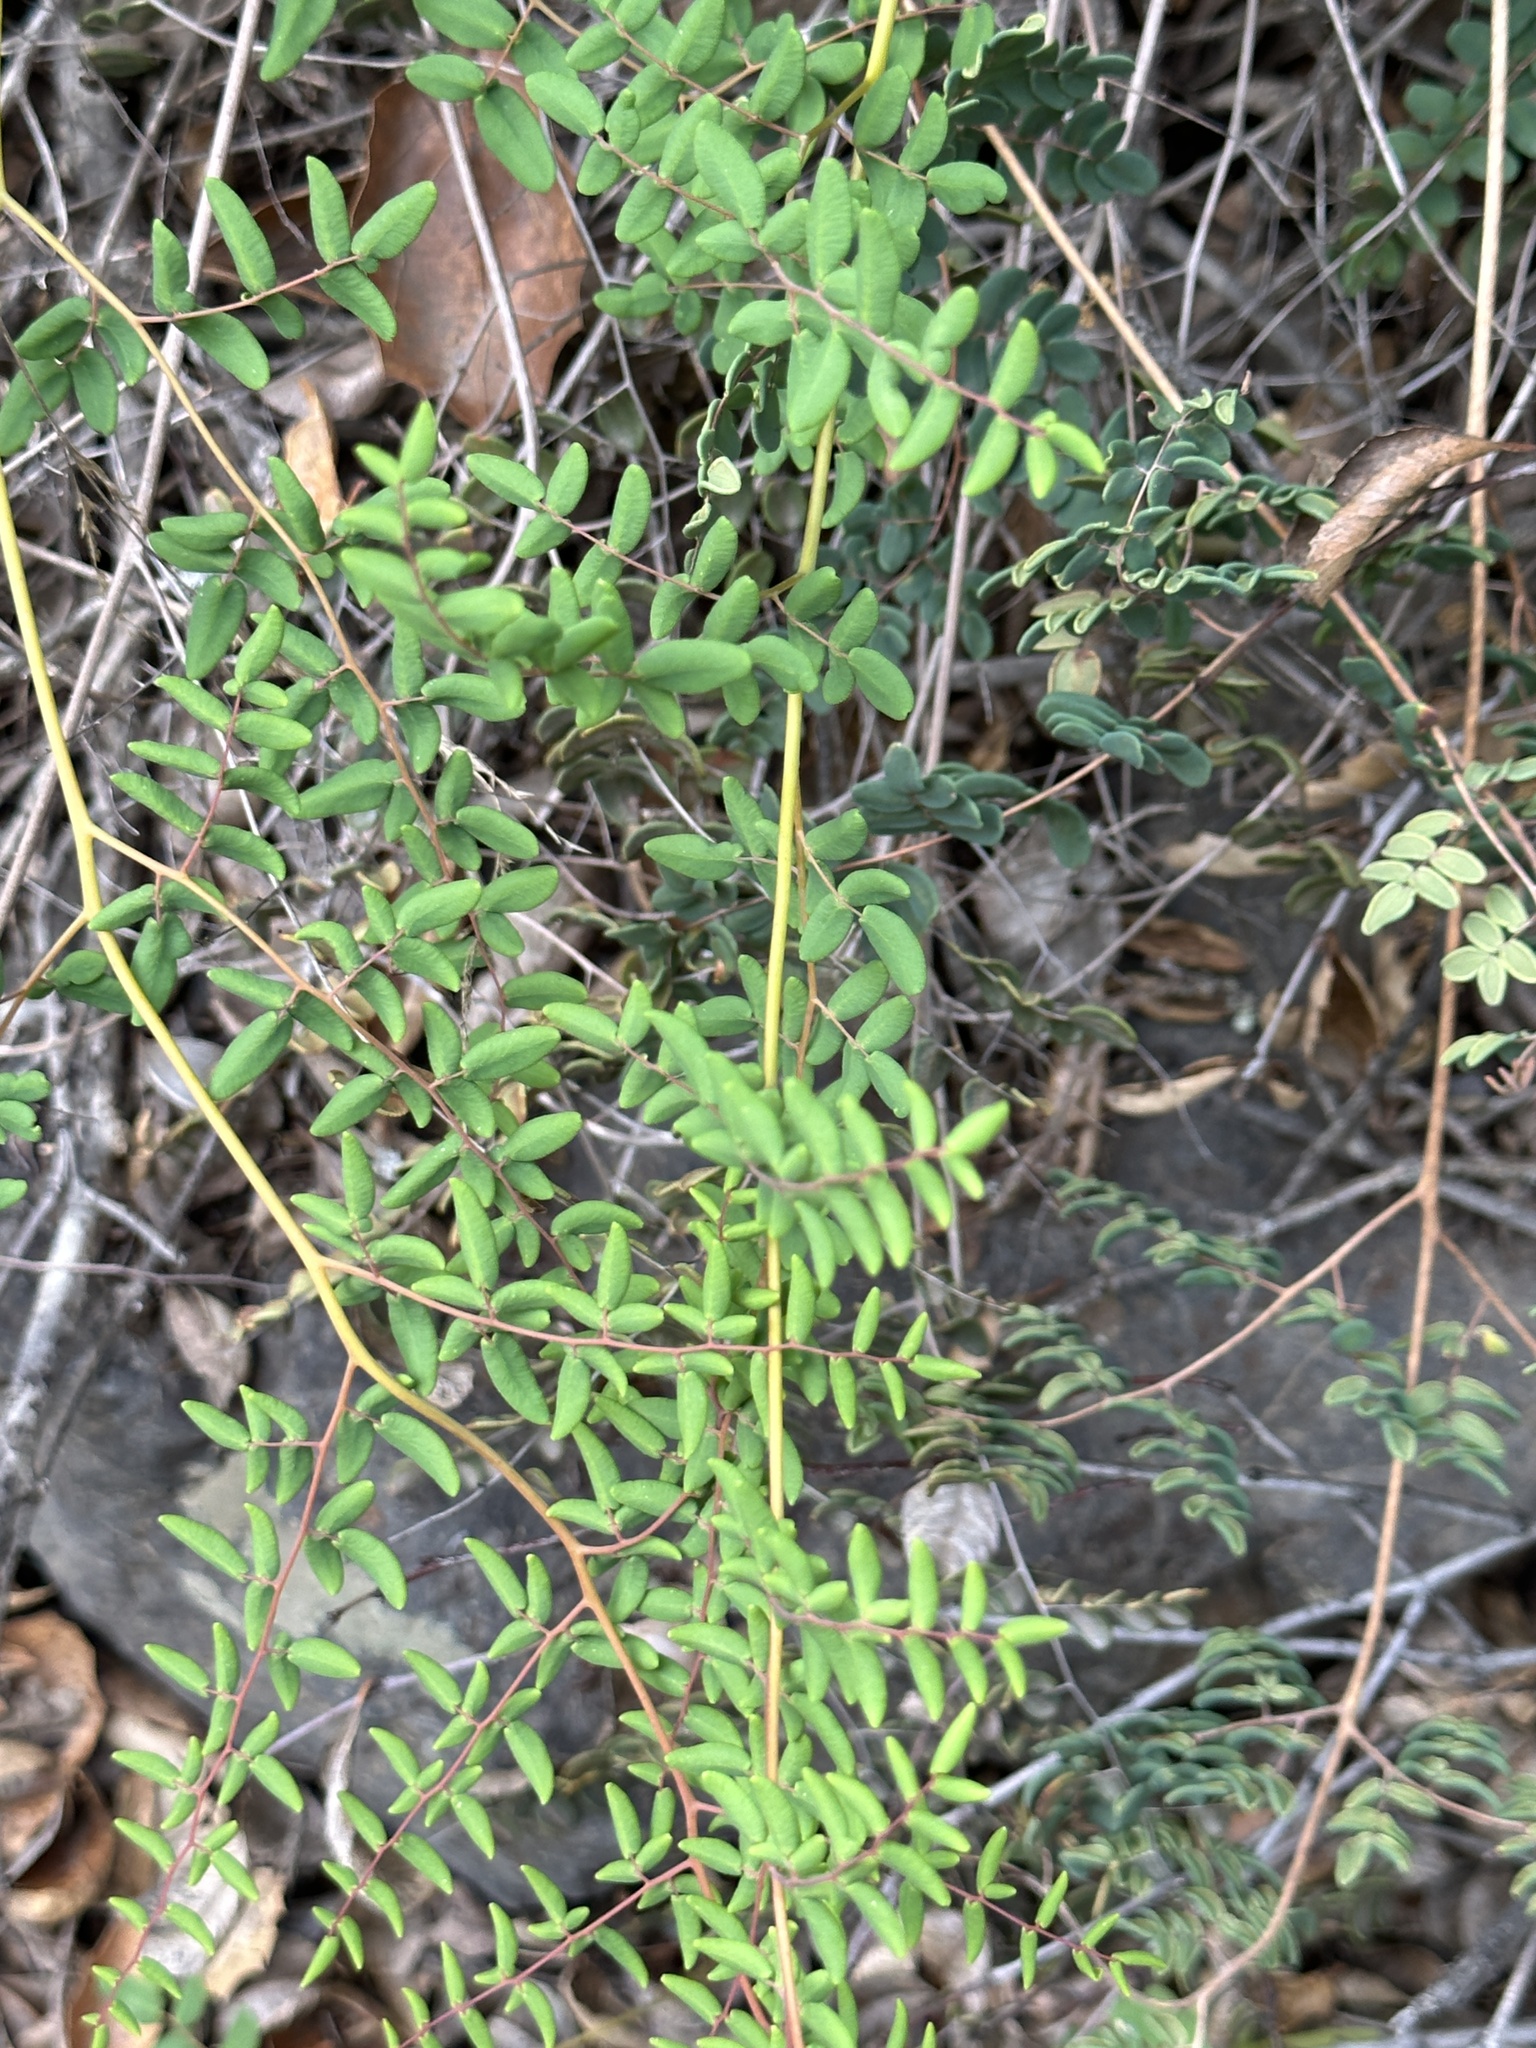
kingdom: Plantae
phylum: Tracheophyta
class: Polypodiopsida
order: Polypodiales
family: Pteridaceae
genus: Pellaea
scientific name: Pellaea andromedifolia
